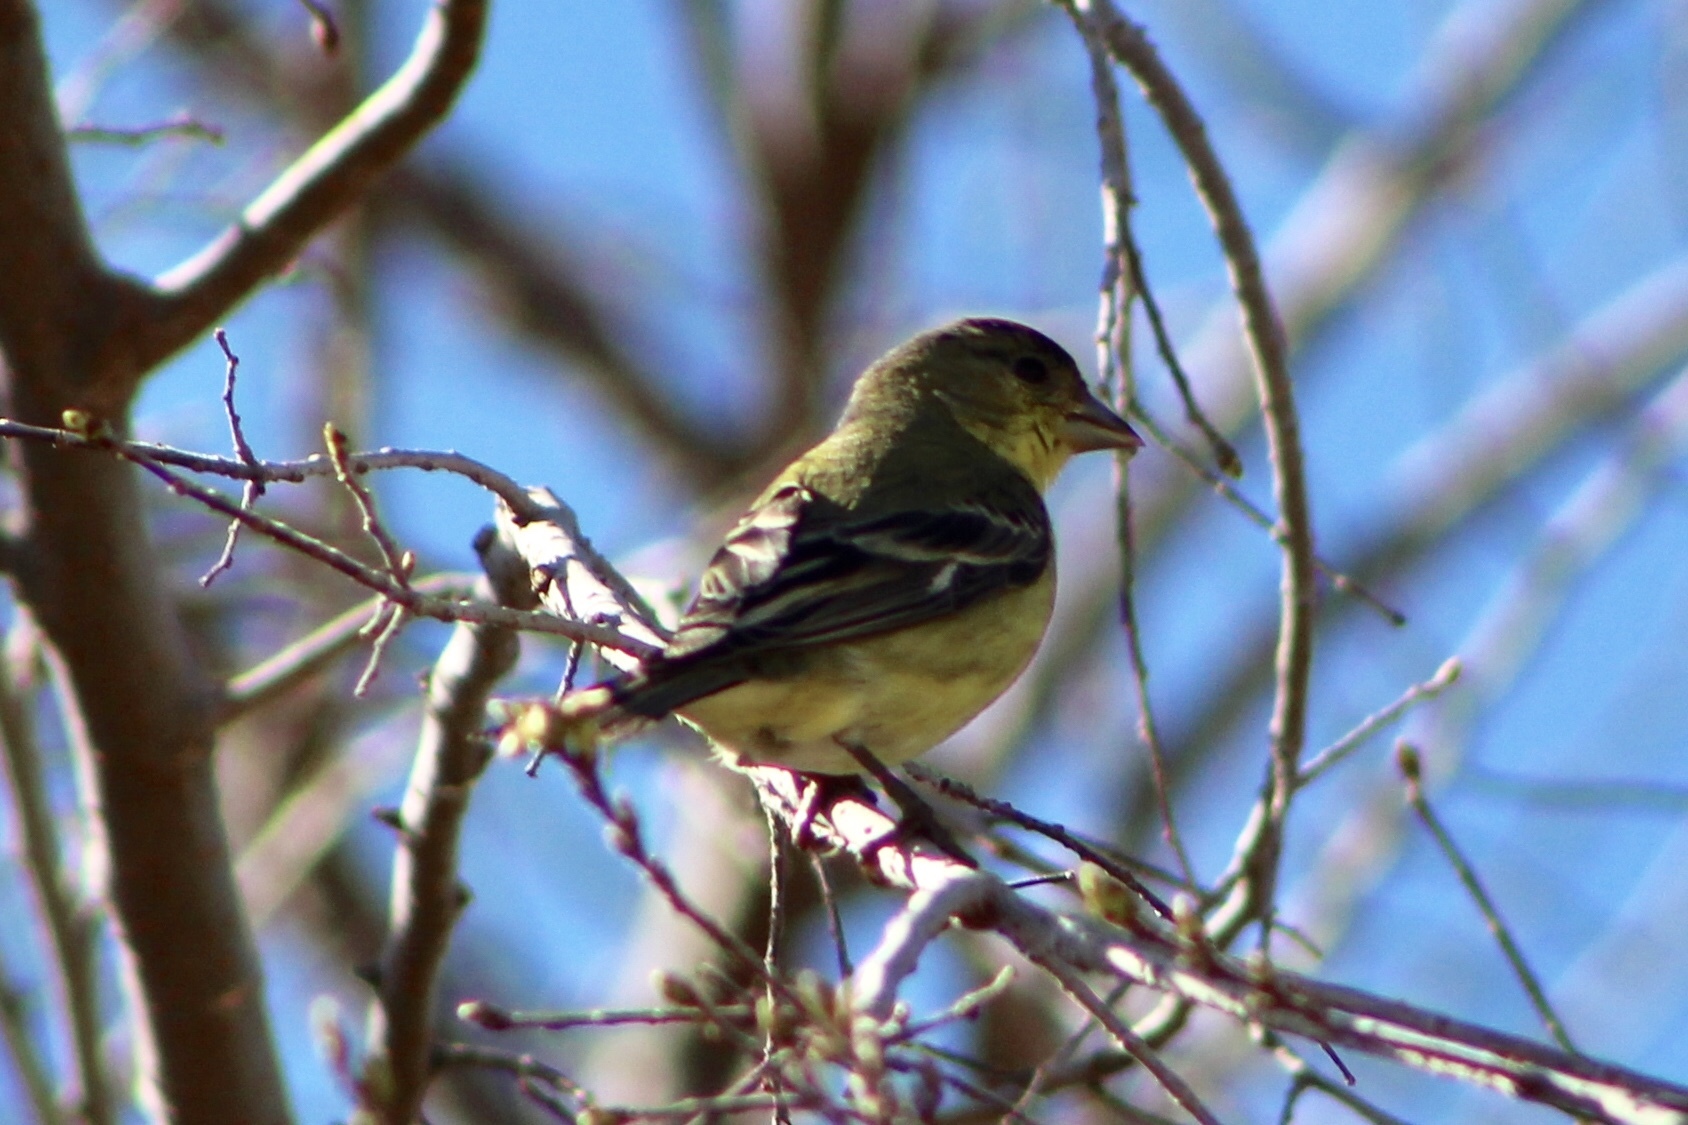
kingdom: Animalia
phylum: Chordata
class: Aves
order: Passeriformes
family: Fringillidae
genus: Spinus
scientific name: Spinus psaltria
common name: Lesser goldfinch
